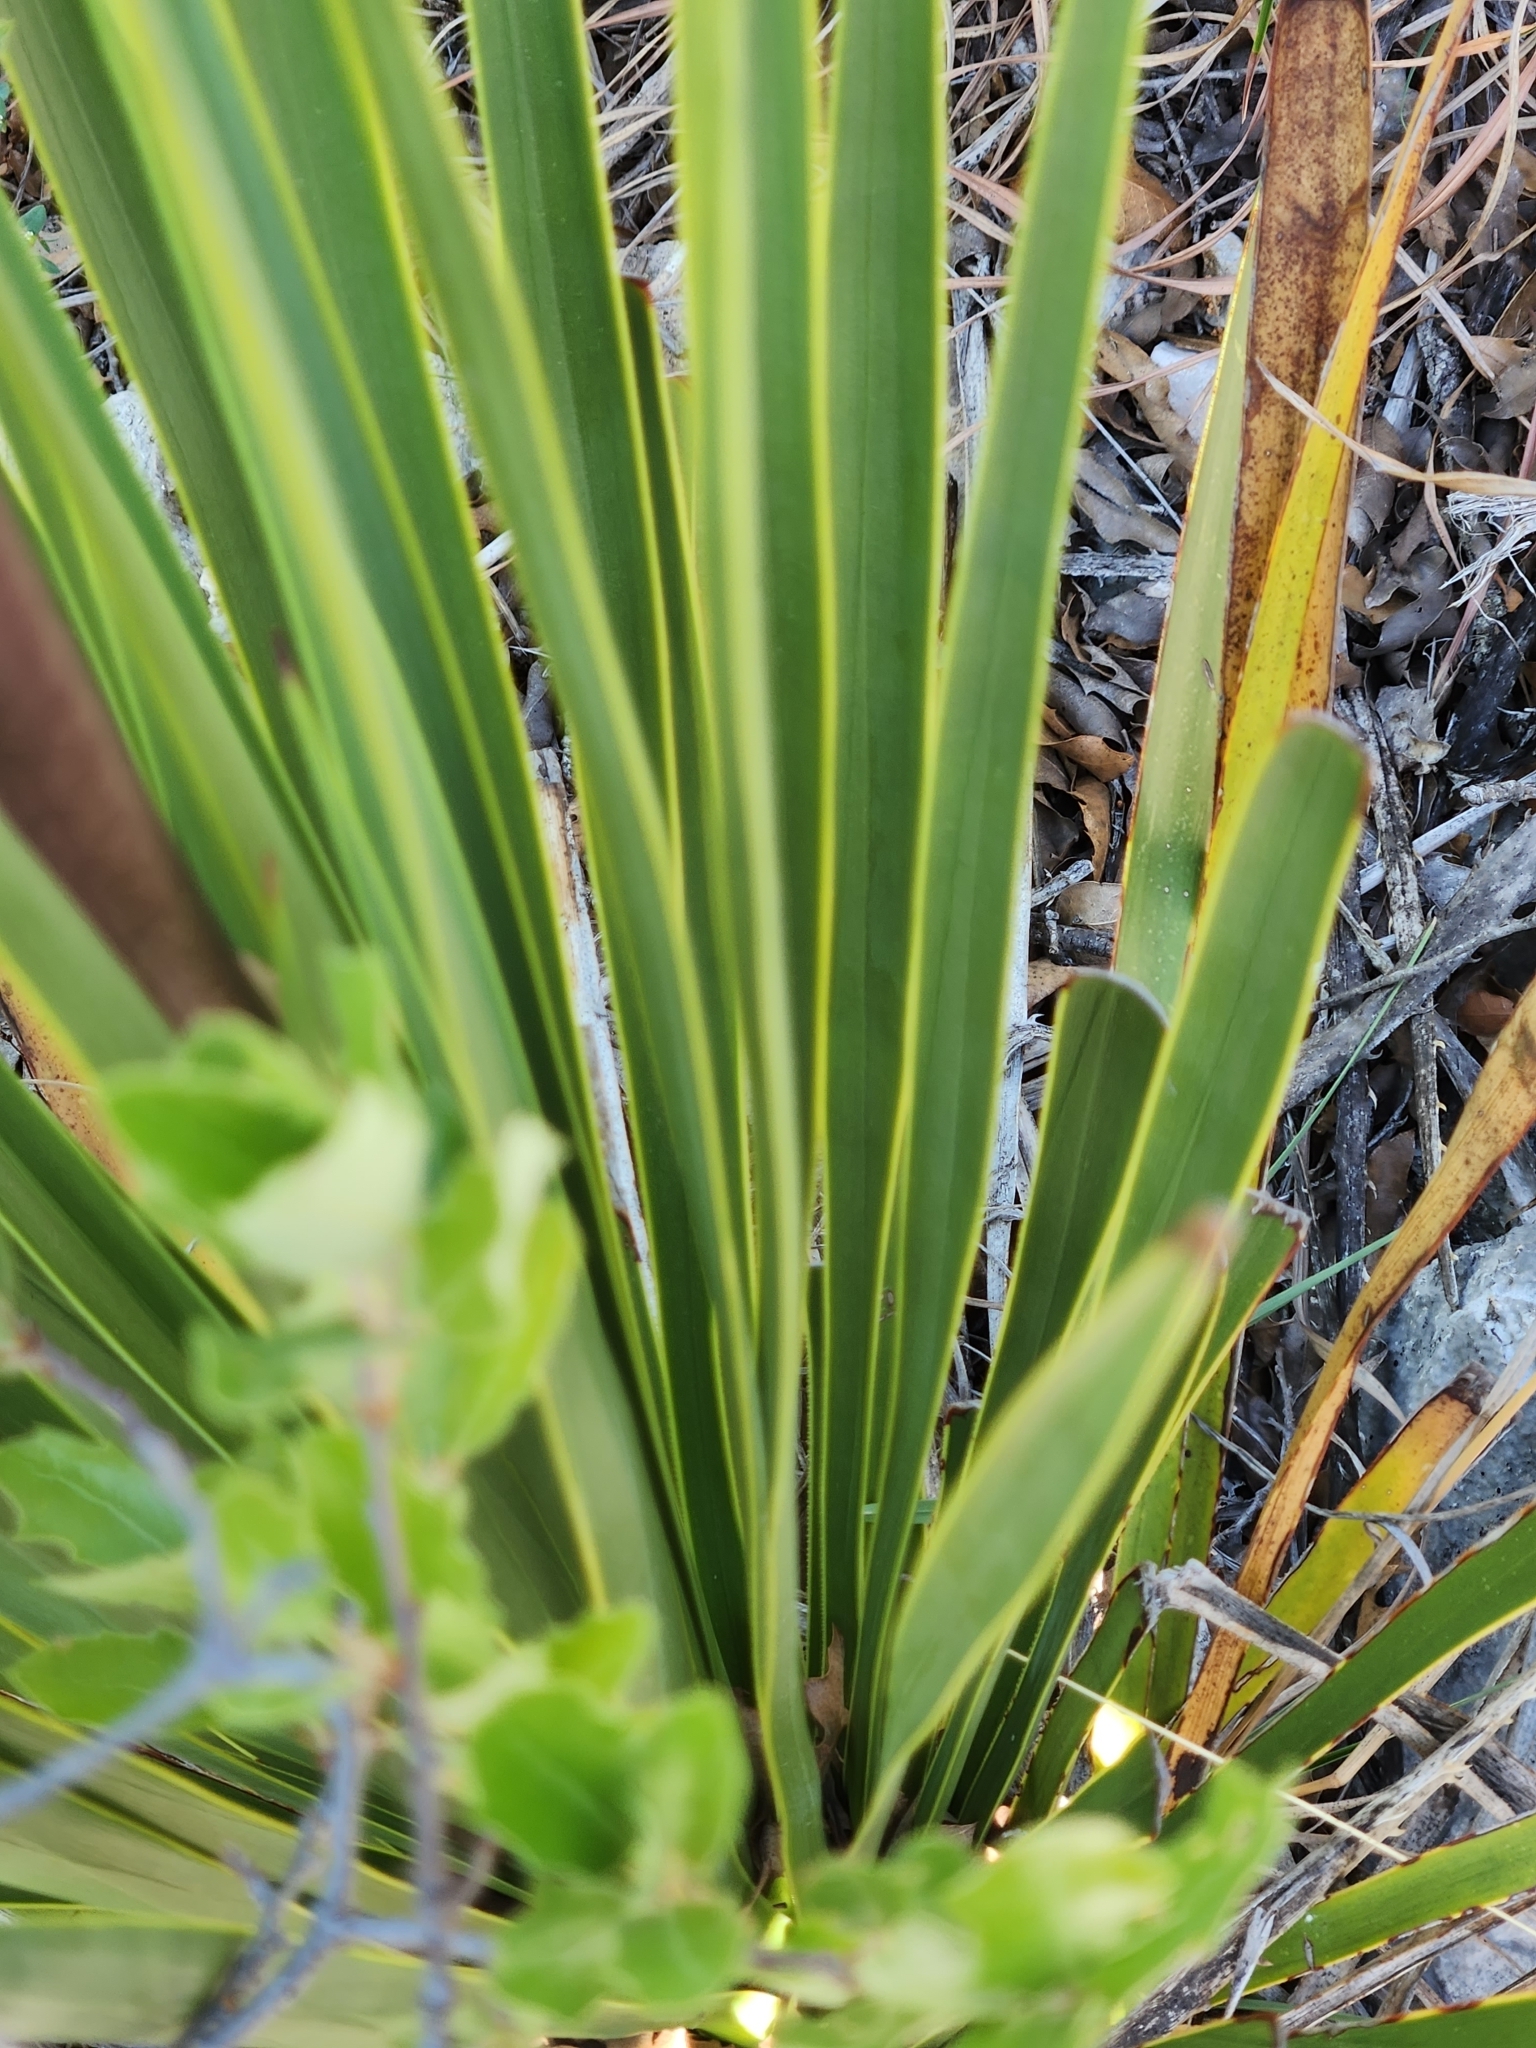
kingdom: Plantae
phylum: Tracheophyta
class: Liliopsida
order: Asparagales
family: Asparagaceae
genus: Yucca
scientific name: Yucca reverchonii
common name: San angelo yucca
